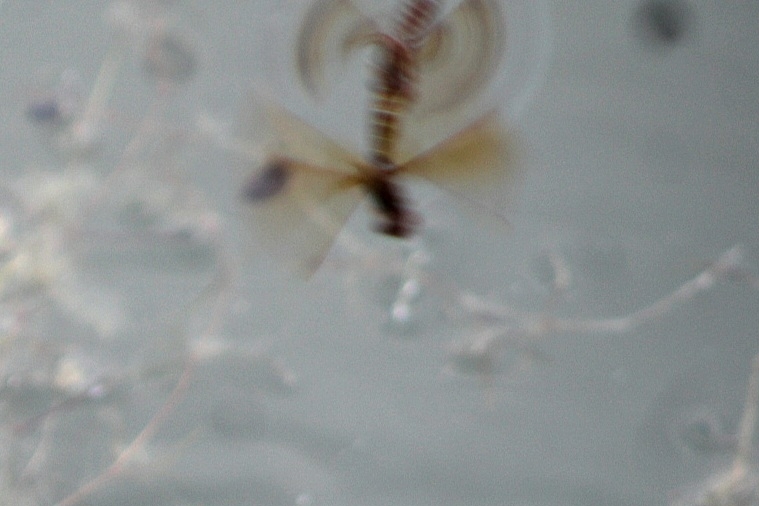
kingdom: Animalia
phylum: Arthropoda
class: Insecta
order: Odonata
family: Libellulidae
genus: Perithemis
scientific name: Perithemis tenera
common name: Eastern amberwing
